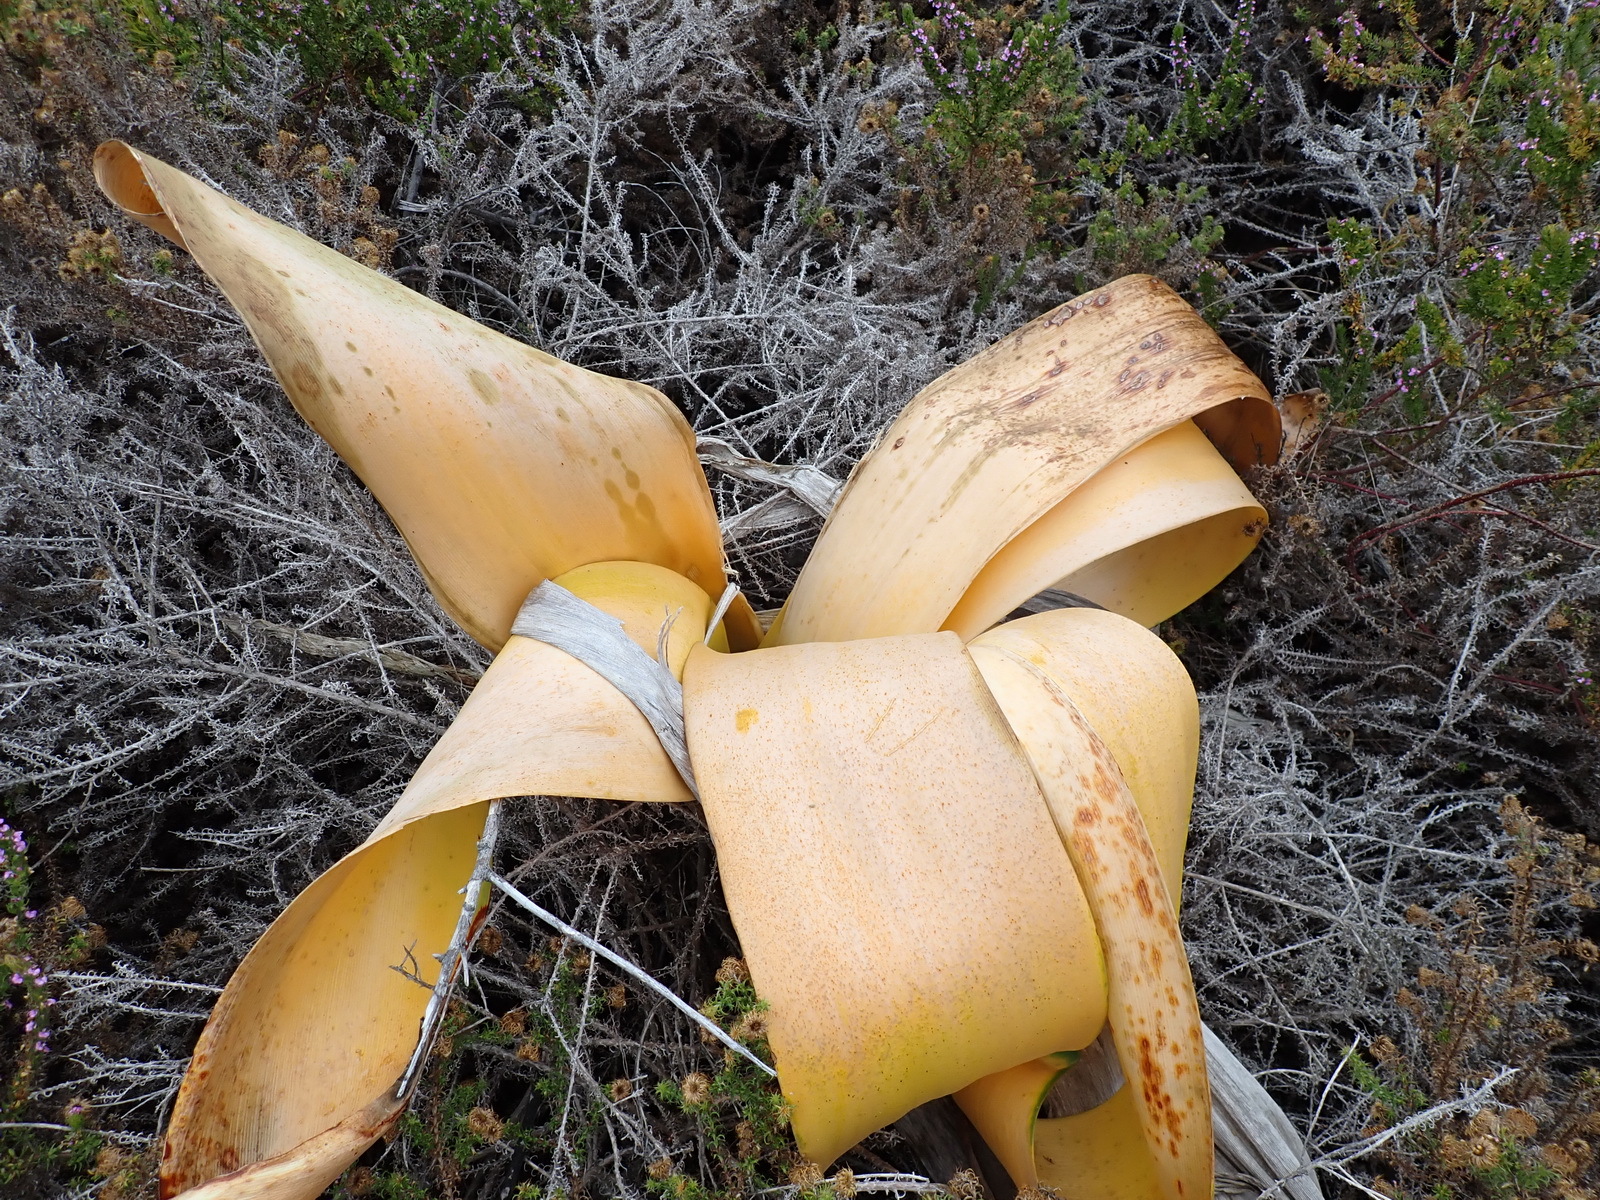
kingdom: Plantae
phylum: Tracheophyta
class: Liliopsida
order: Asparagales
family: Amaryllidaceae
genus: Brunsvigia
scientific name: Brunsvigia orientalis
